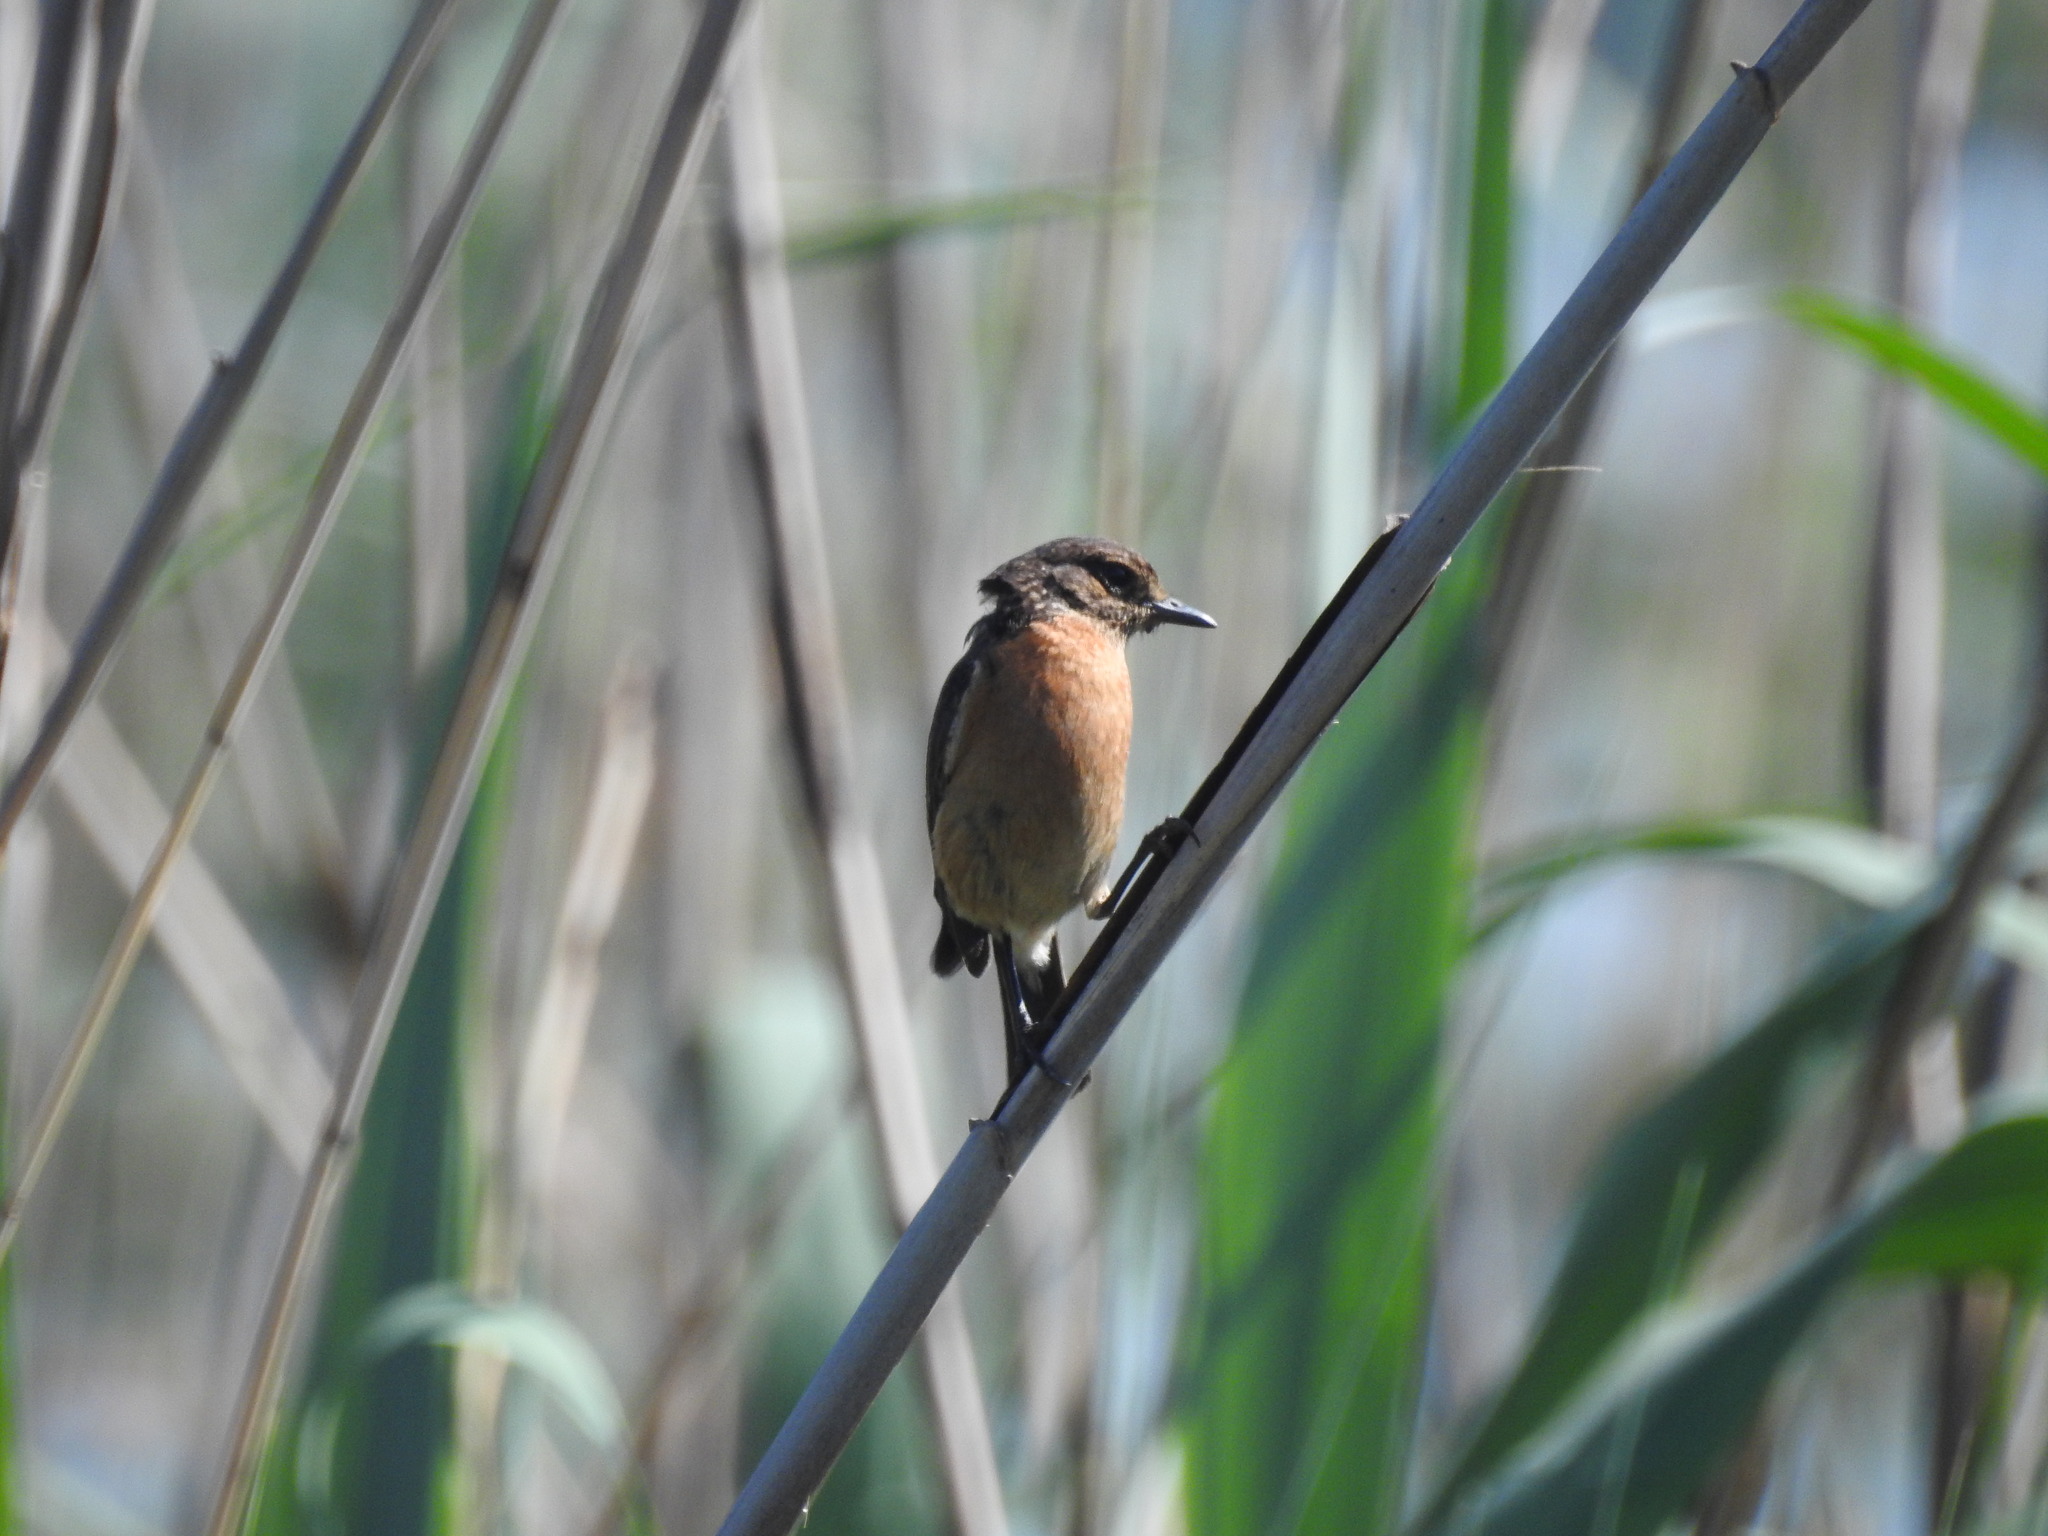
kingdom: Animalia
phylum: Chordata
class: Aves
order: Passeriformes
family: Muscicapidae
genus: Saxicola
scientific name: Saxicola torquatus
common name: African stonechat
